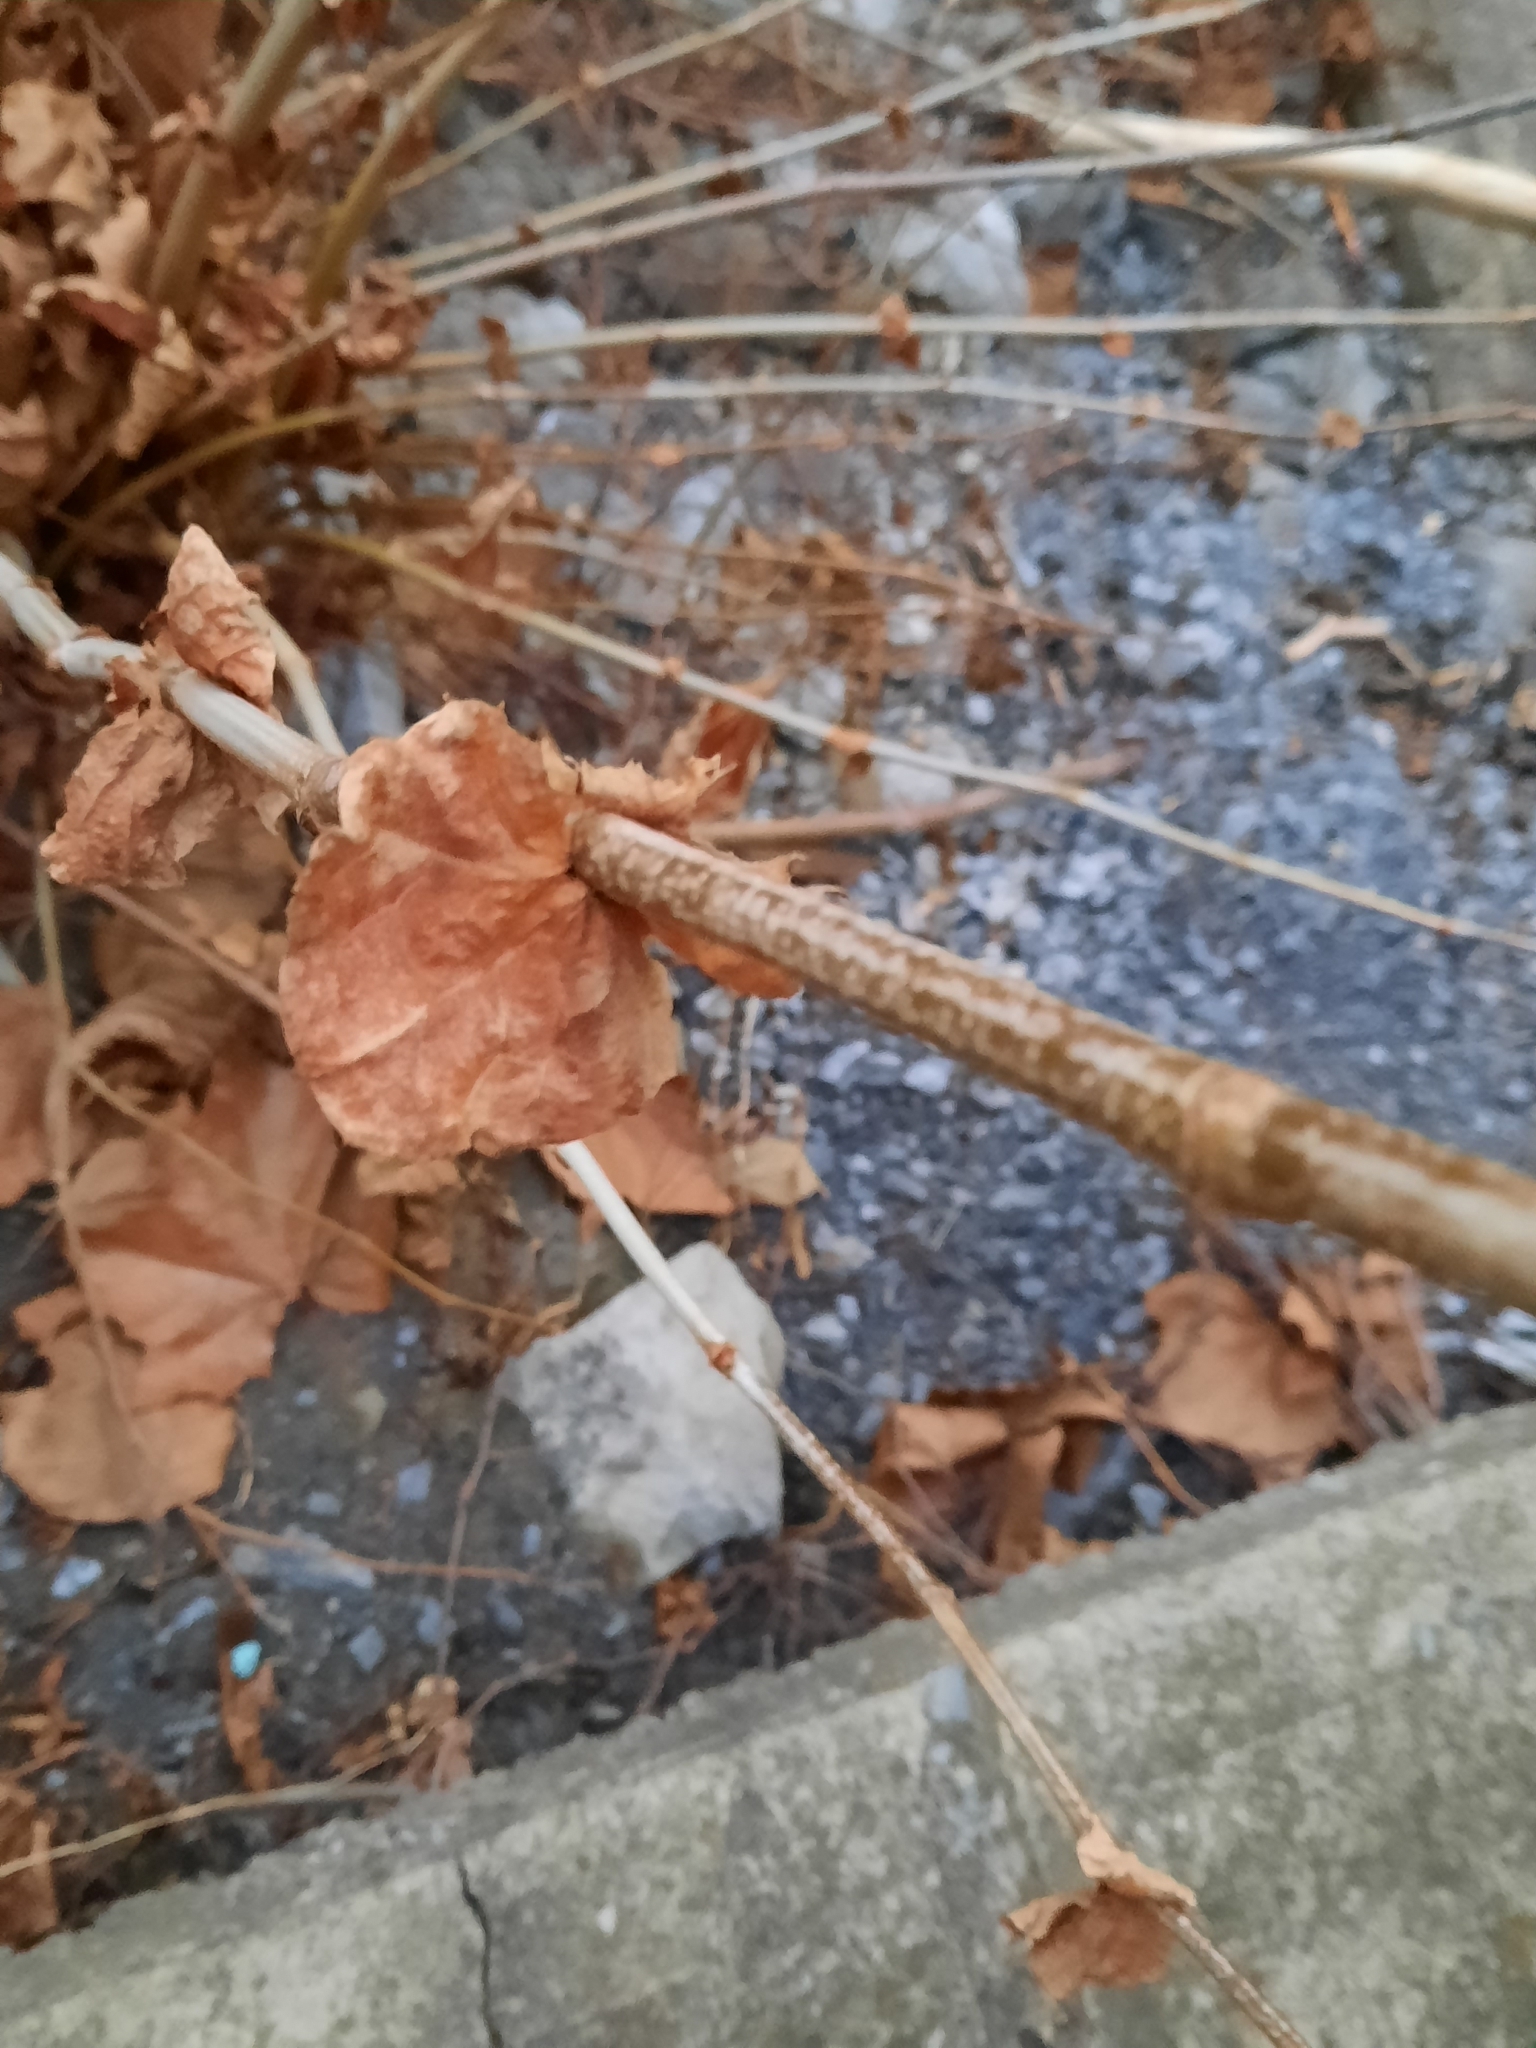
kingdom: Plantae
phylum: Tracheophyta
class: Magnoliopsida
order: Proteales
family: Platanaceae
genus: Platanus
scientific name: Platanus occidentalis
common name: American sycamore
